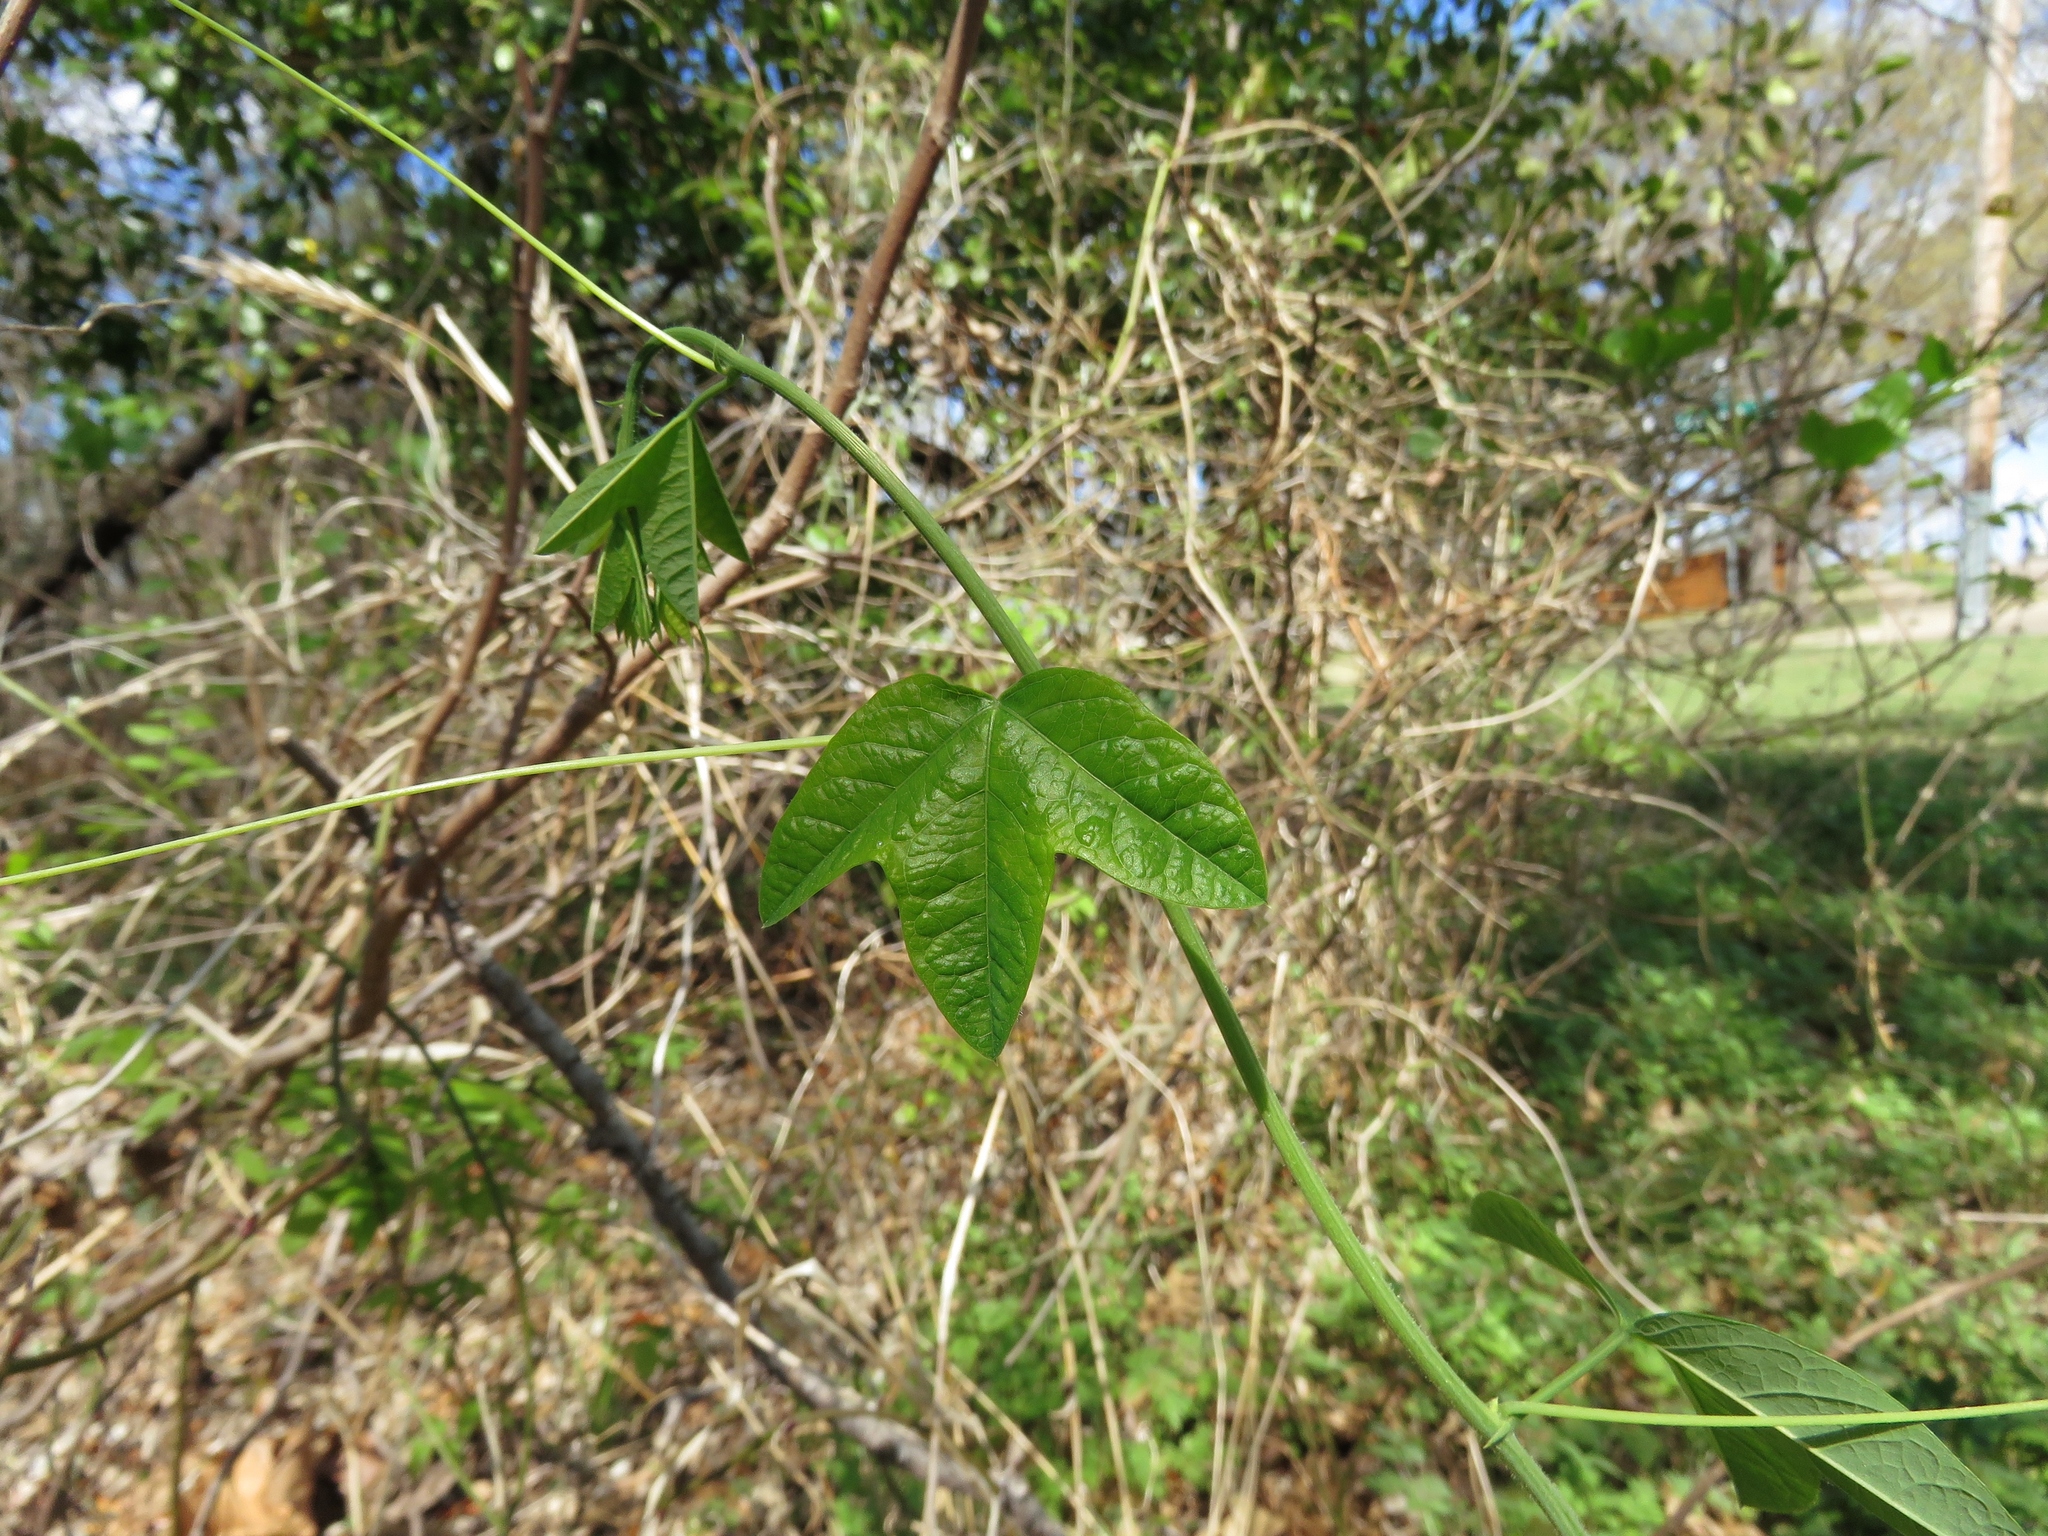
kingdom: Plantae
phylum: Tracheophyta
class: Magnoliopsida
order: Malpighiales
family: Passifloraceae
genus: Passiflora
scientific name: Passiflora lutea
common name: Yellow passionflower
